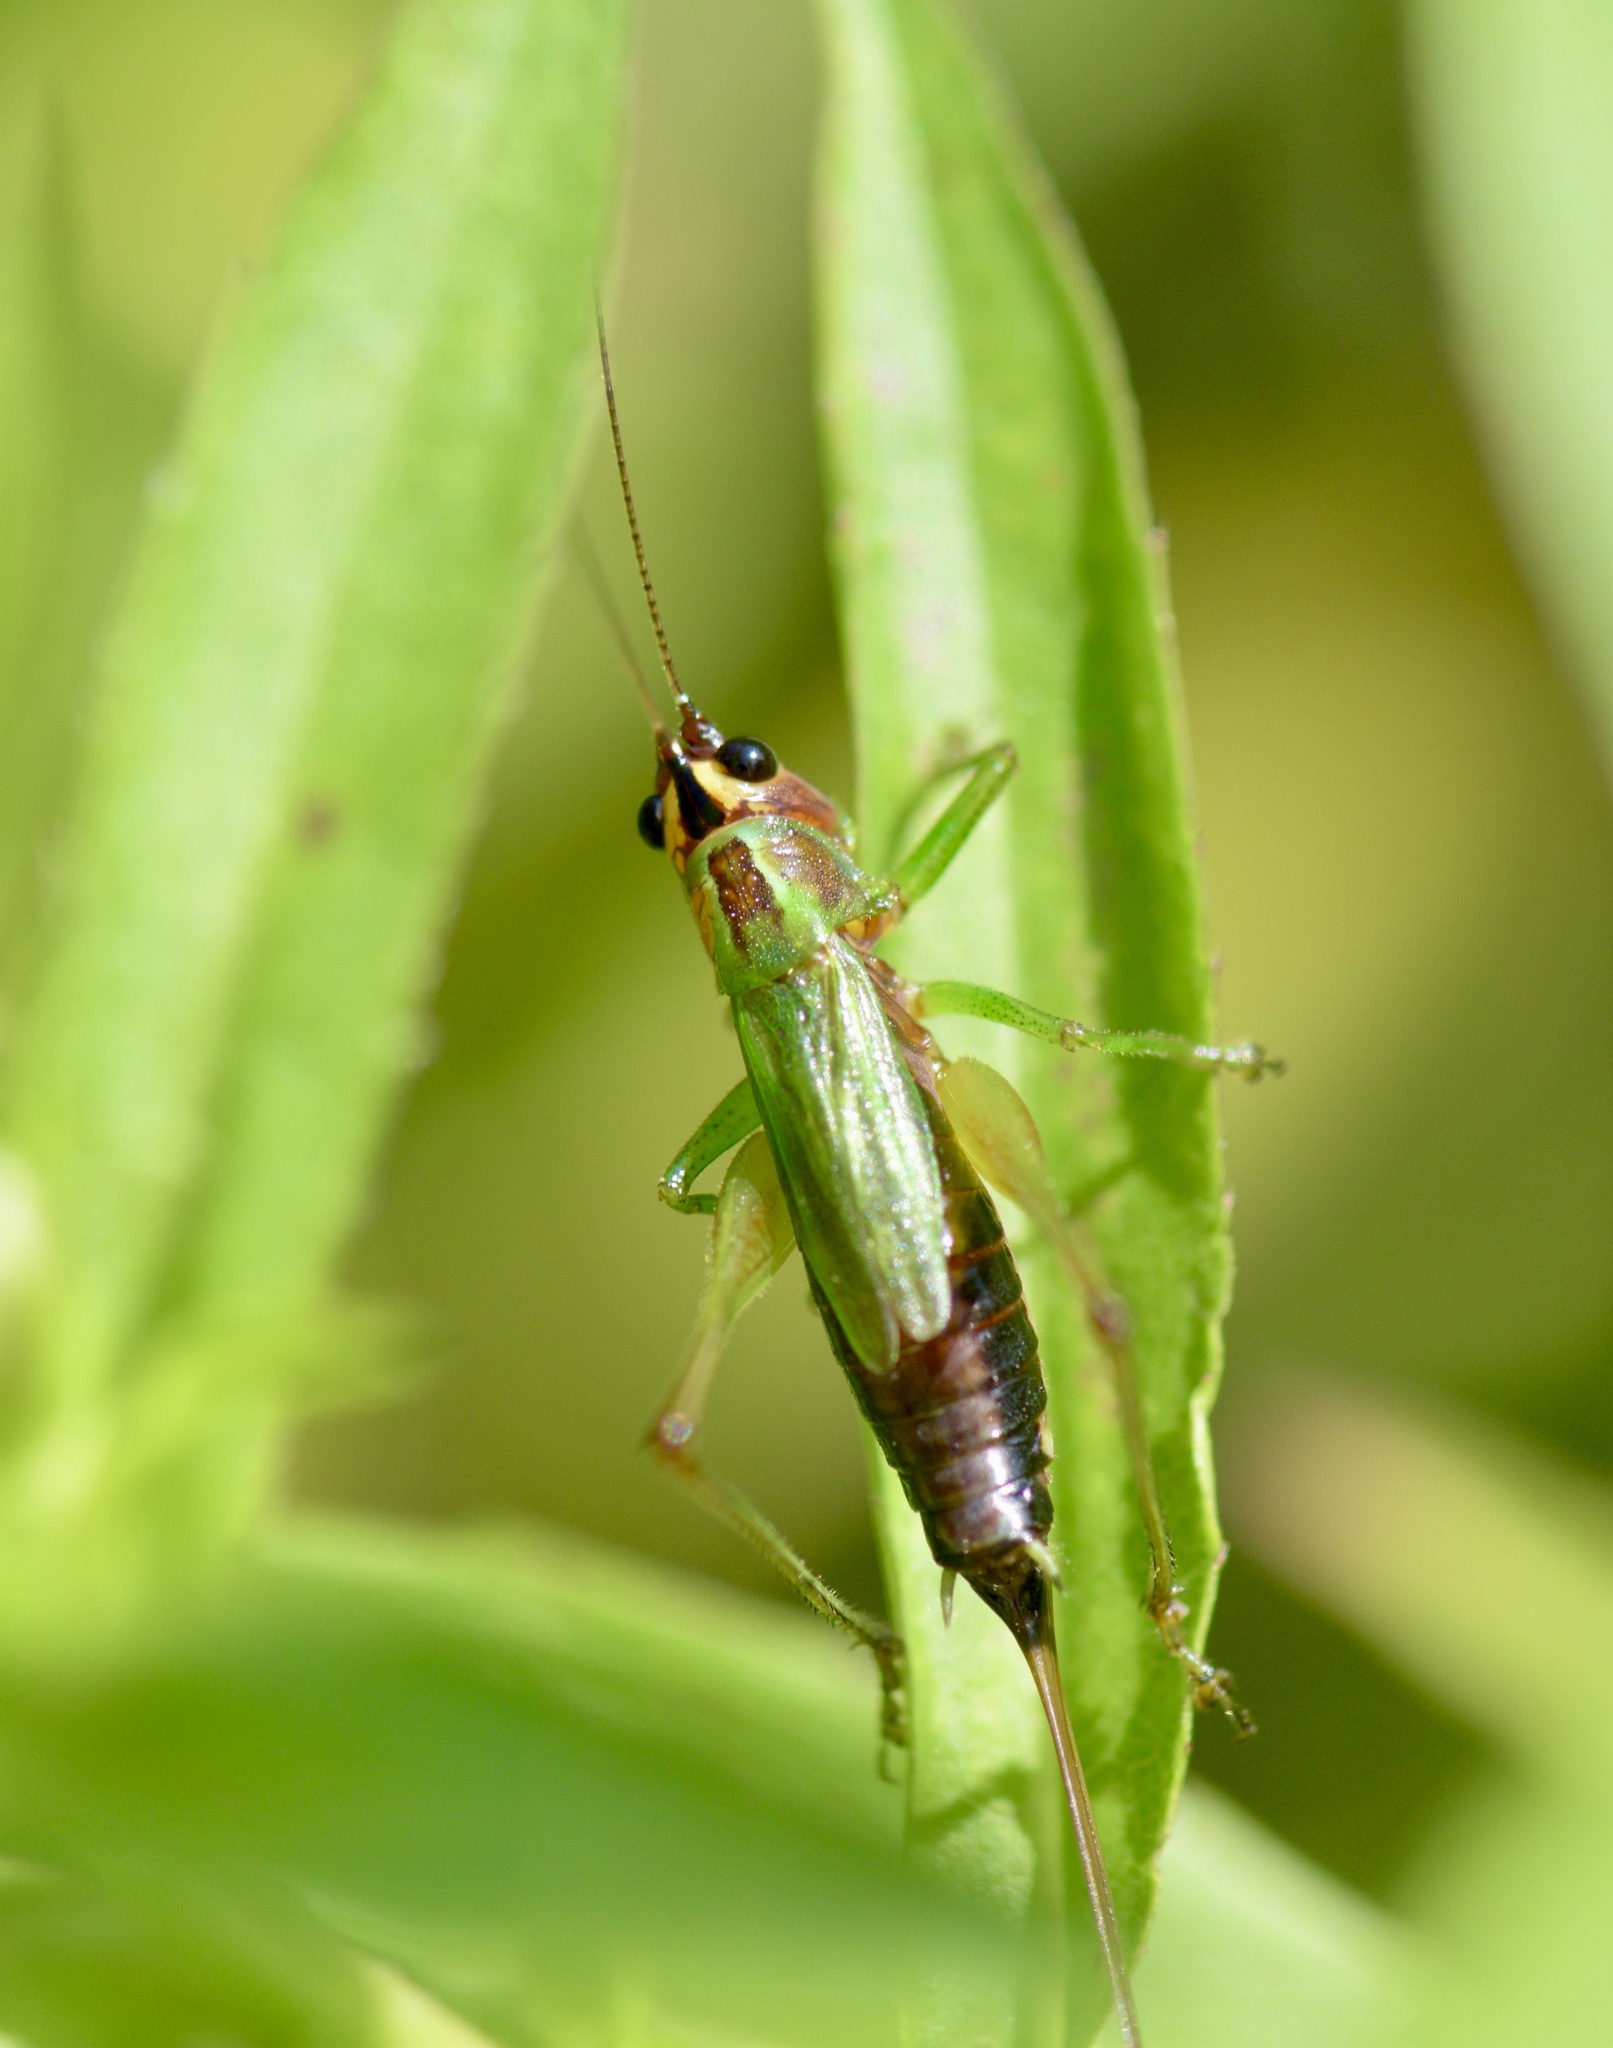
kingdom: Animalia
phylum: Arthropoda
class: Insecta
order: Orthoptera
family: Tettigoniidae
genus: Conocephalus
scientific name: Conocephalus nigropleurum
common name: Black-sided meadow katydid
